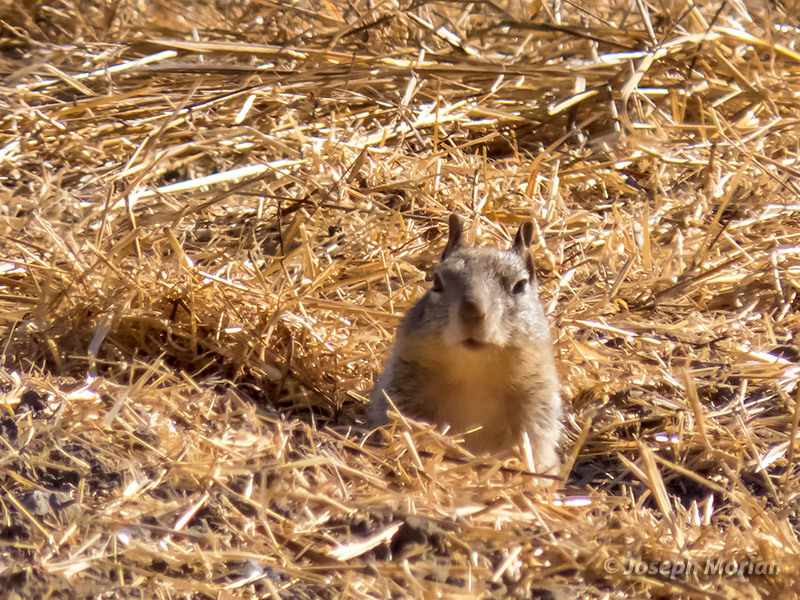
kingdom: Animalia
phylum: Chordata
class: Mammalia
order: Rodentia
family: Sciuridae
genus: Otospermophilus
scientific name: Otospermophilus beecheyi
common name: California ground squirrel
